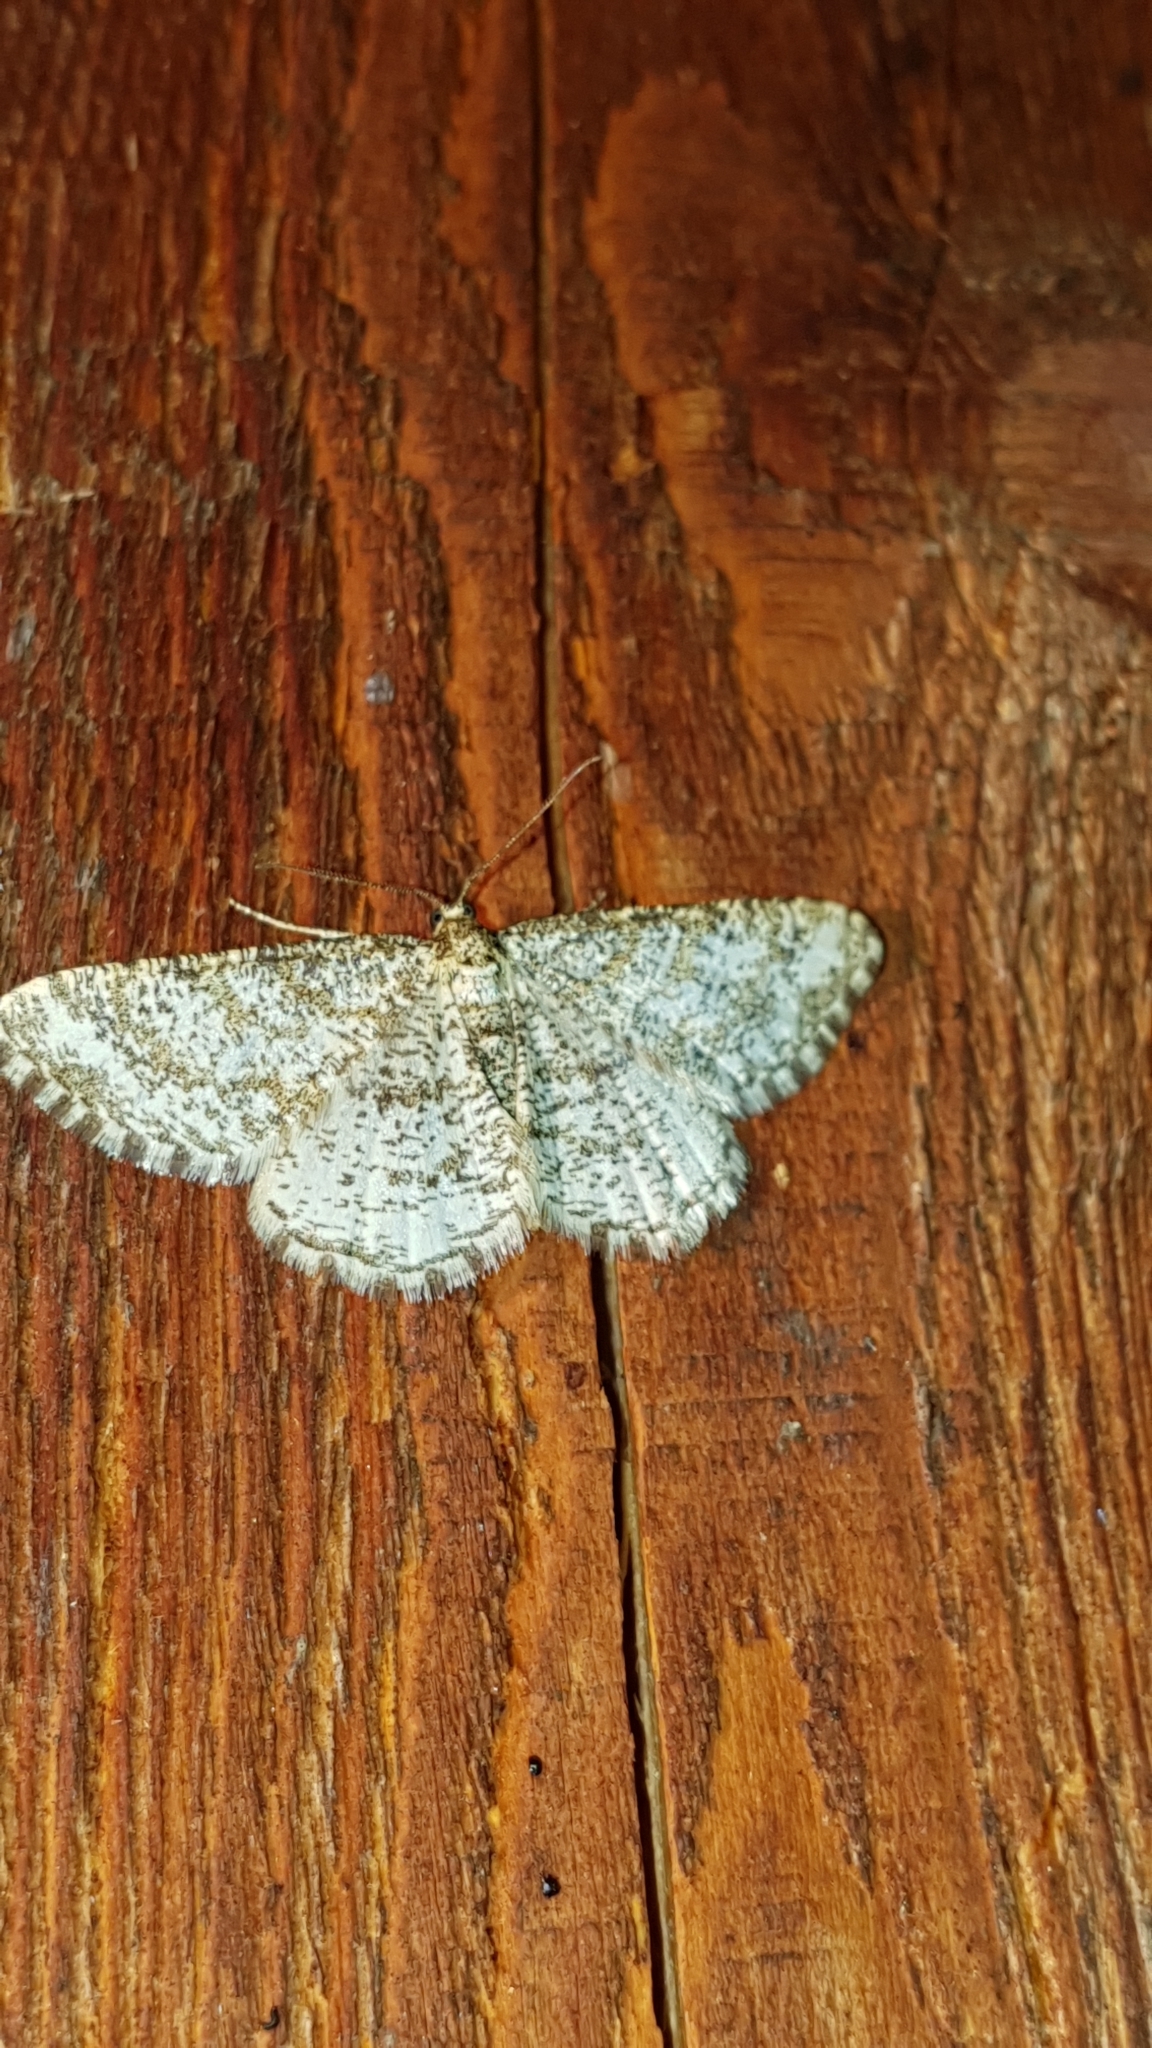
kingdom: Animalia
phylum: Arthropoda
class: Insecta
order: Lepidoptera
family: Geometridae
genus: Heliomata
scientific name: Heliomata glarearia
